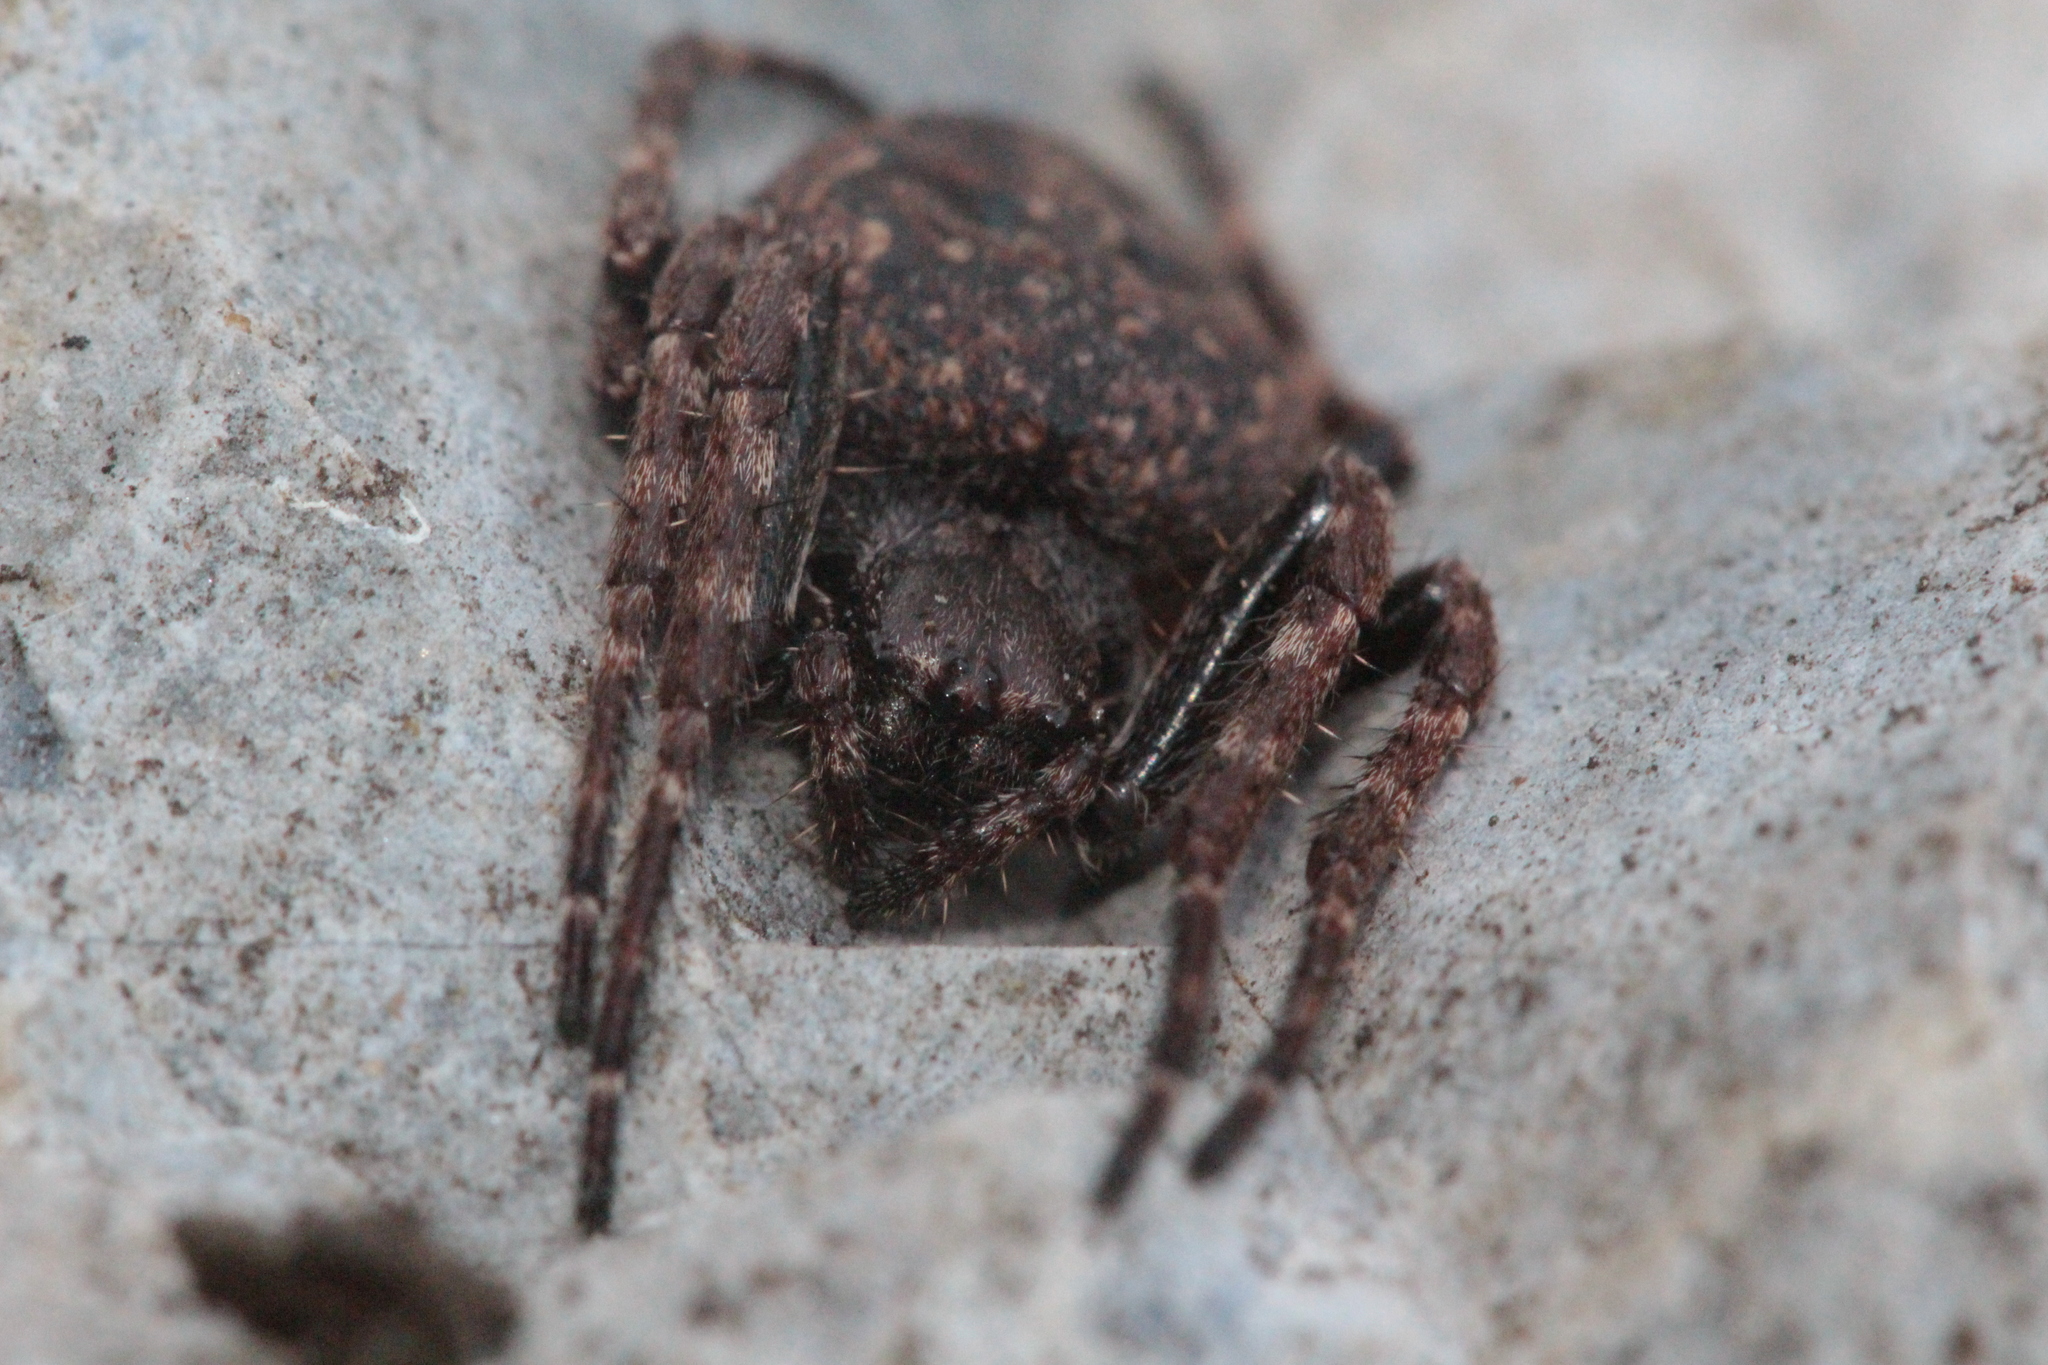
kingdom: Animalia
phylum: Arthropoda
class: Arachnida
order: Araneae
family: Araneidae
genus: Nuctenea
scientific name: Nuctenea umbratica
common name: Toad spider
